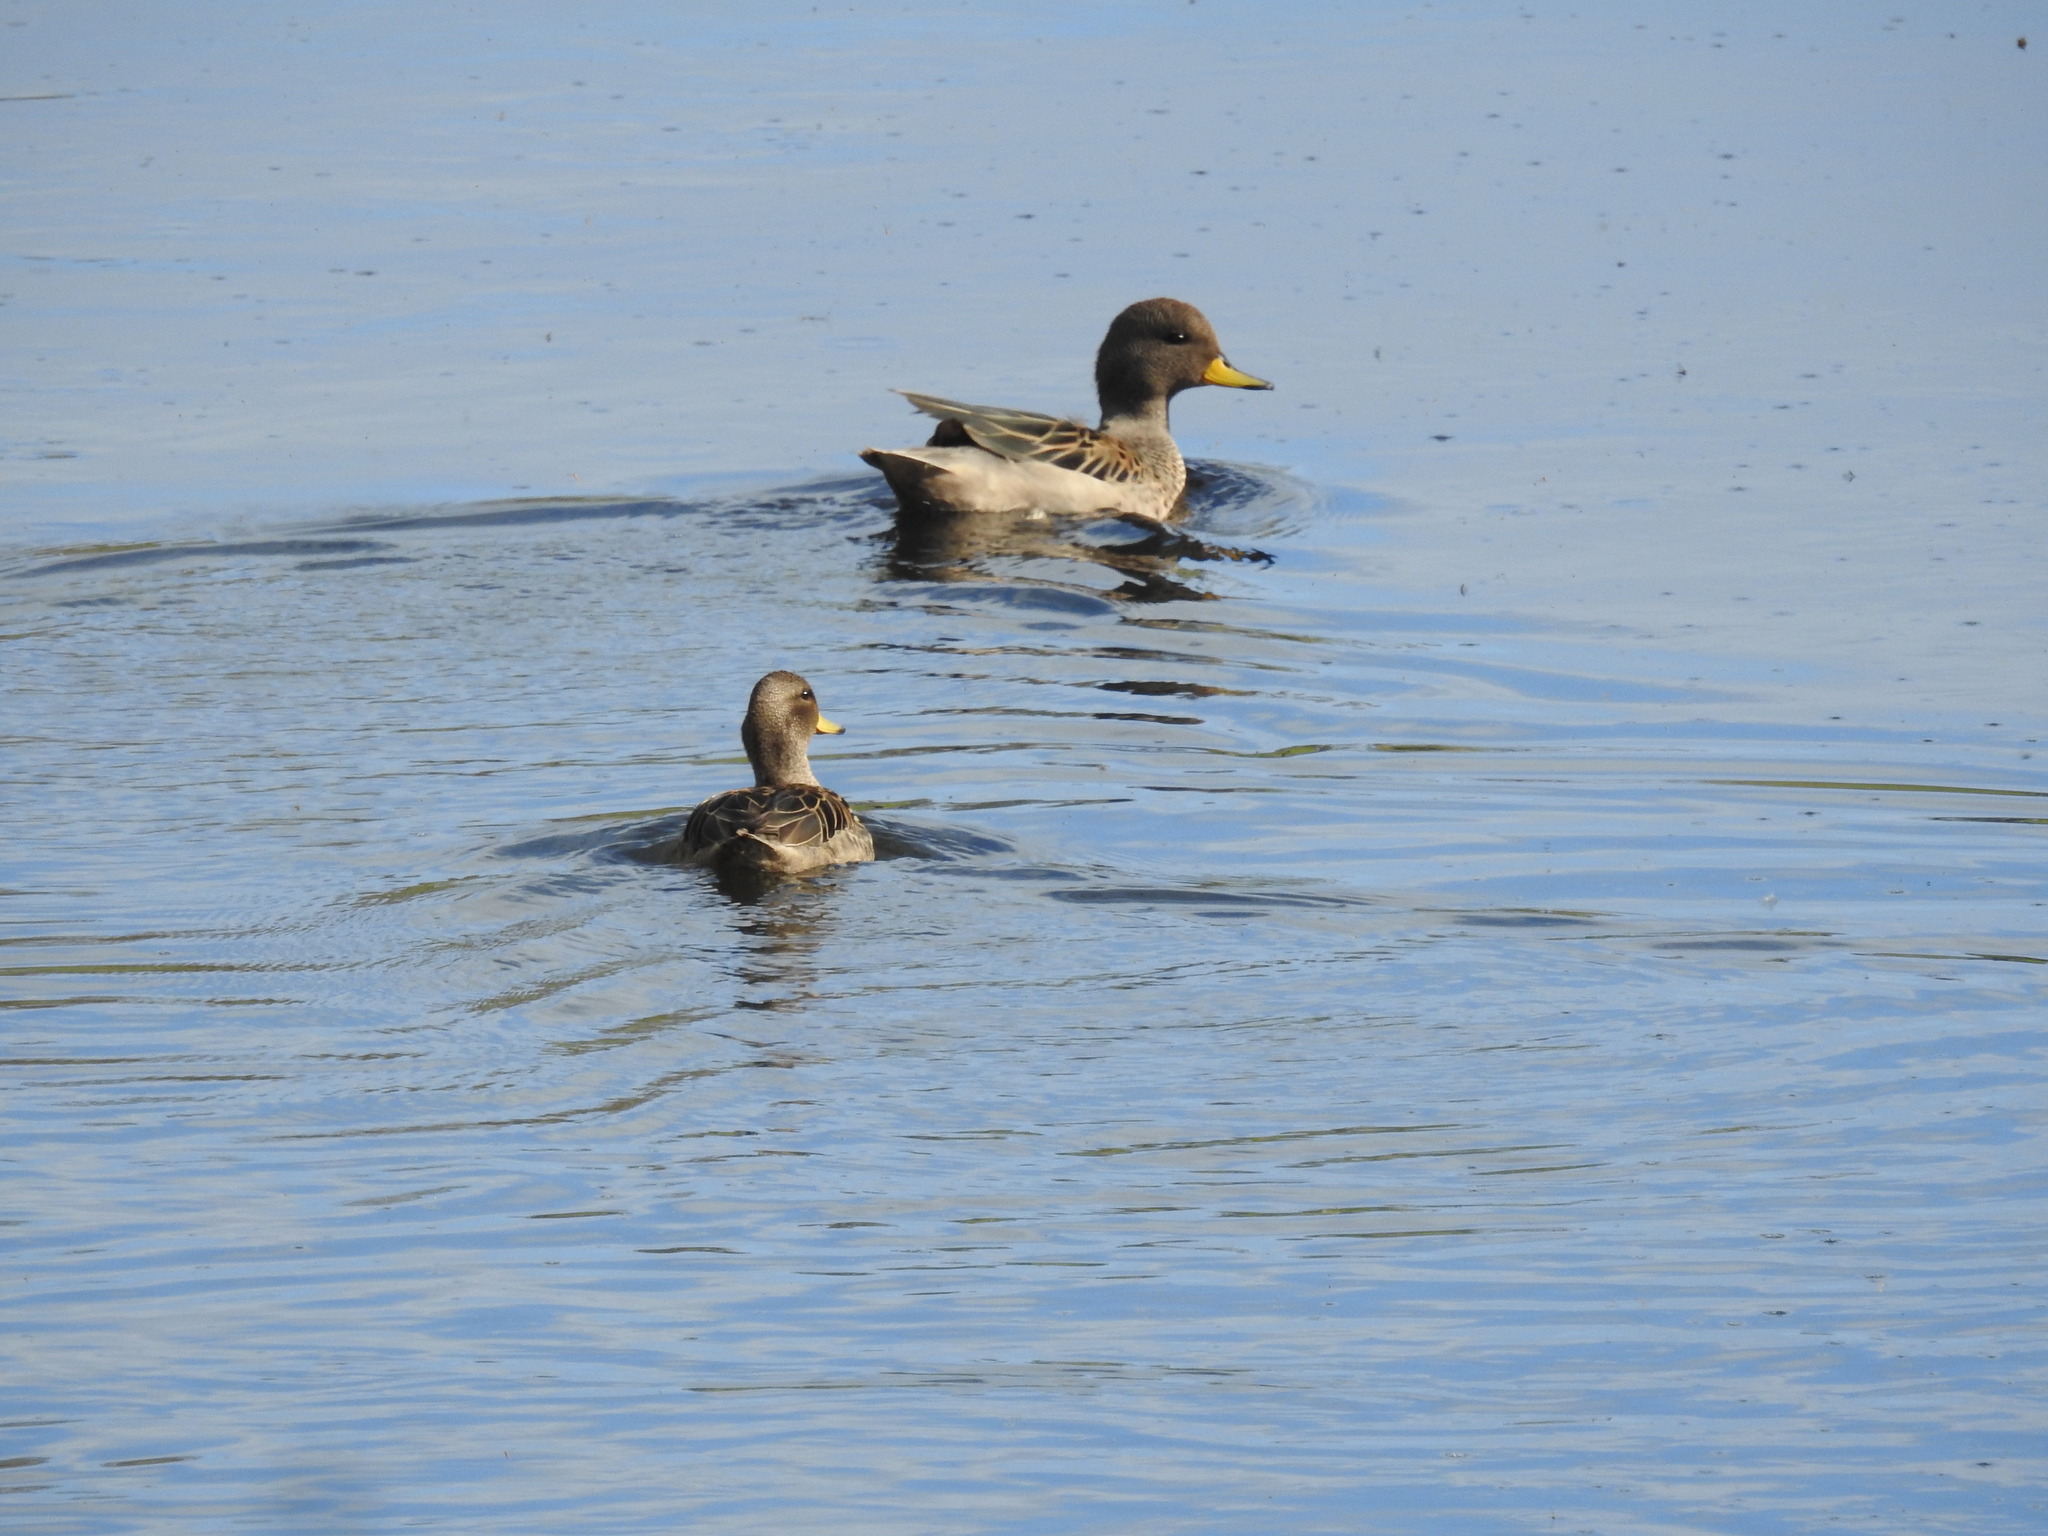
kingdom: Animalia
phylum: Chordata
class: Aves
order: Anseriformes
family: Anatidae
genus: Anas
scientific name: Anas flavirostris
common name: Yellow-billed teal
